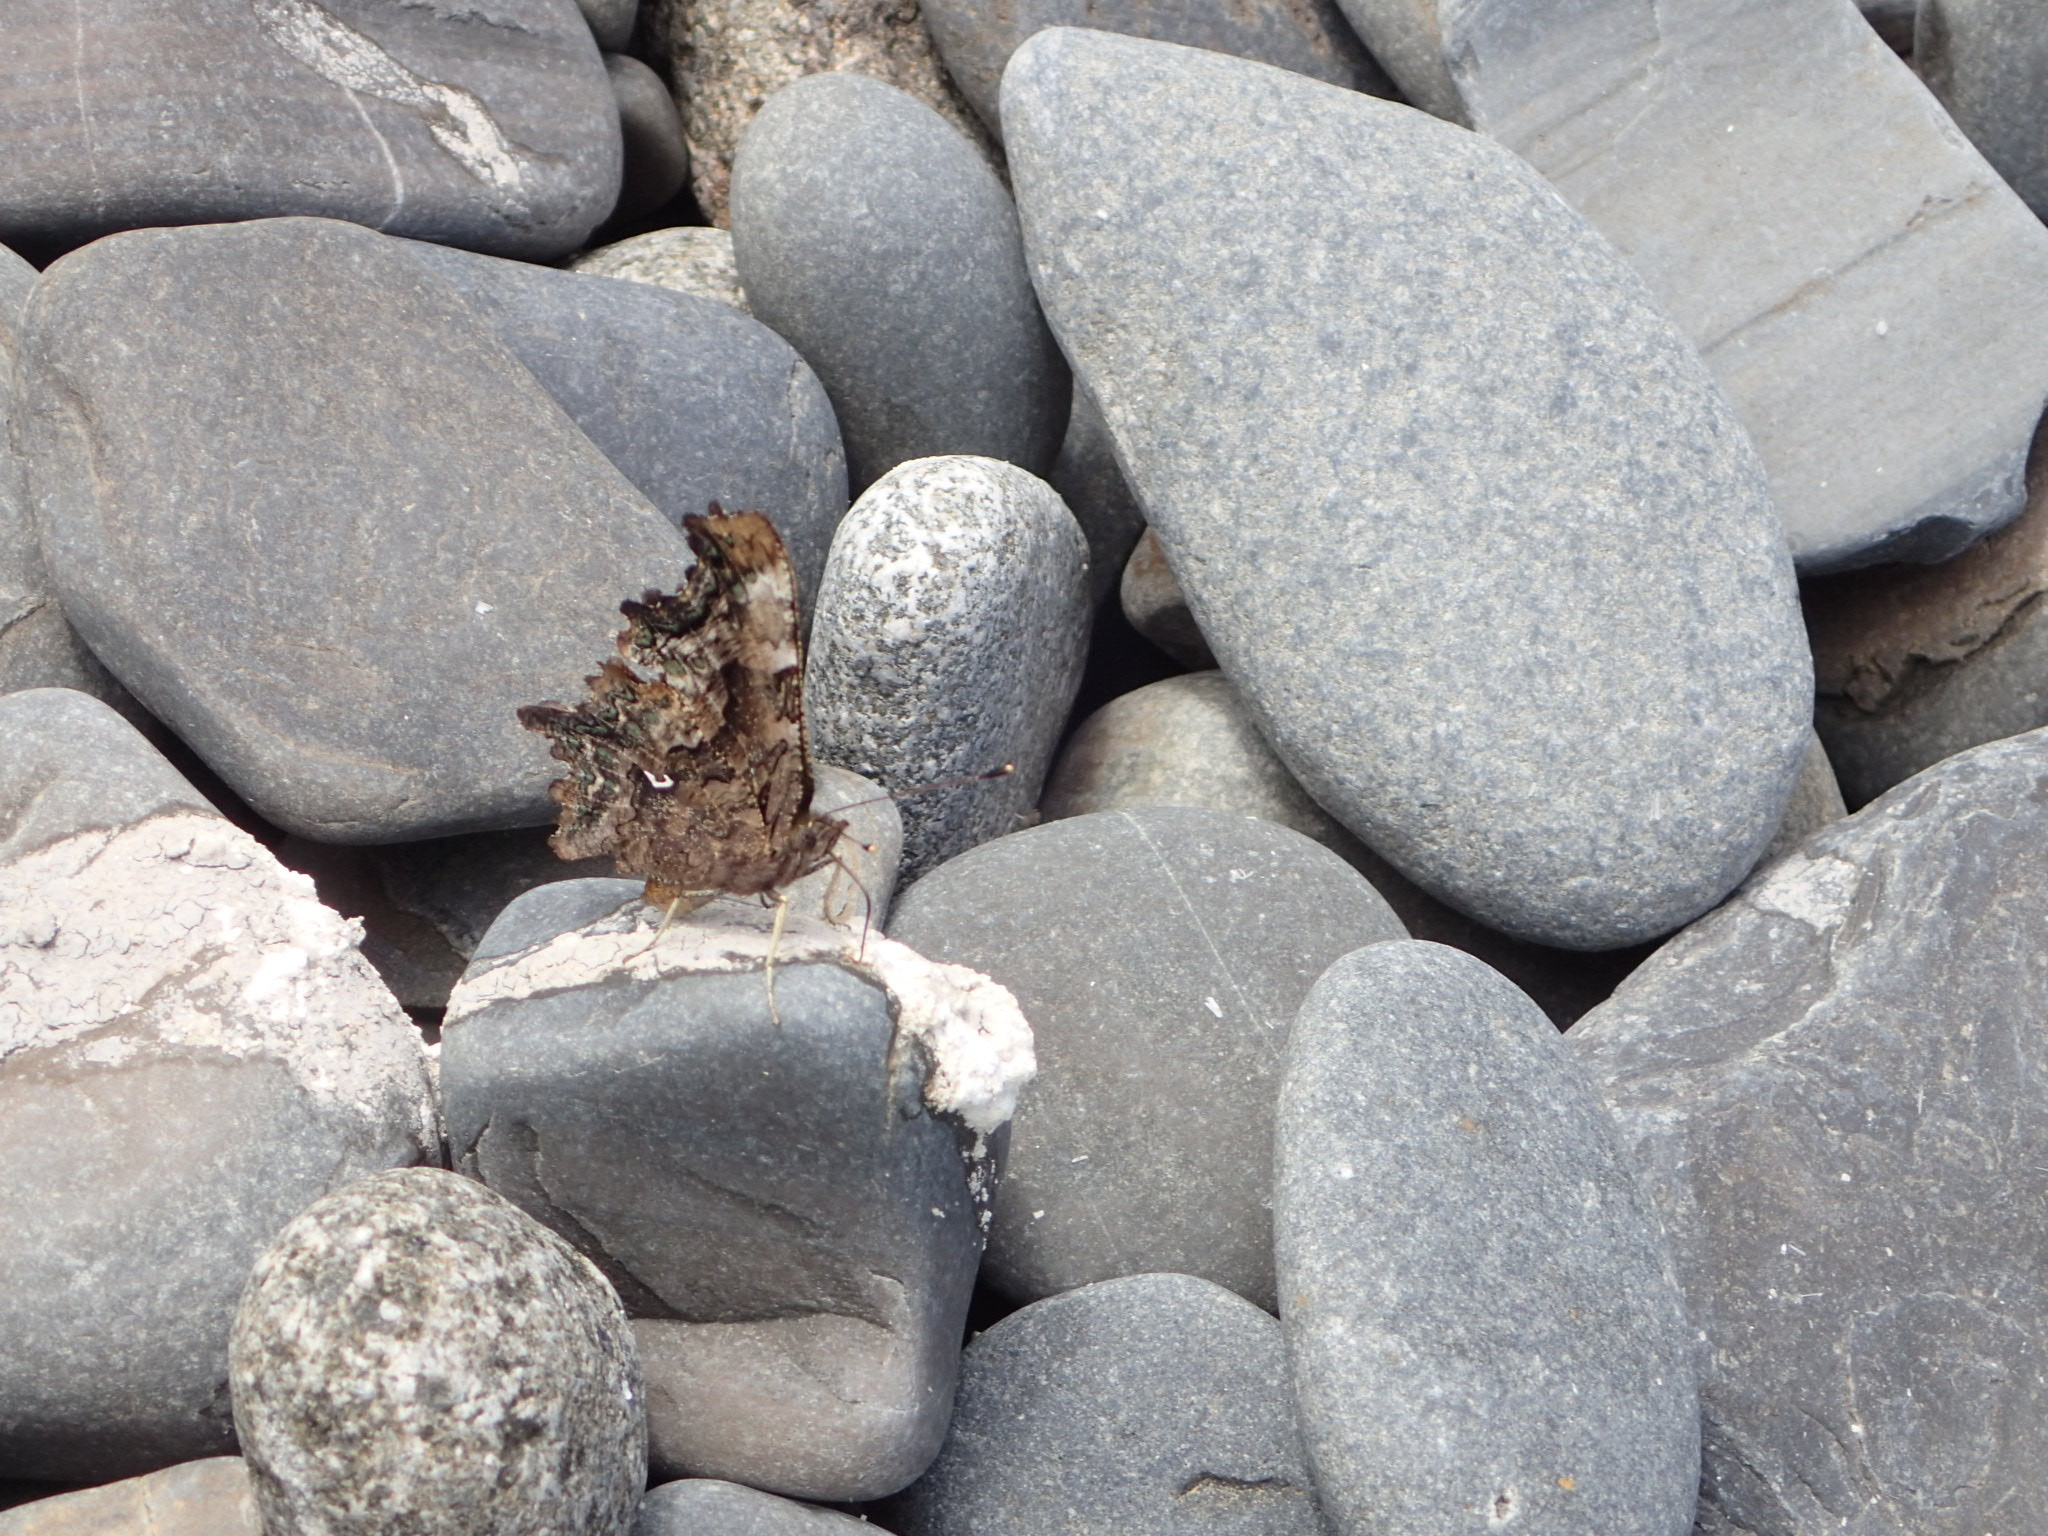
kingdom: Animalia
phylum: Arthropoda
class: Insecta
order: Lepidoptera
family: Nymphalidae
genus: Polygonia
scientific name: Polygonia faunus
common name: Green comma
